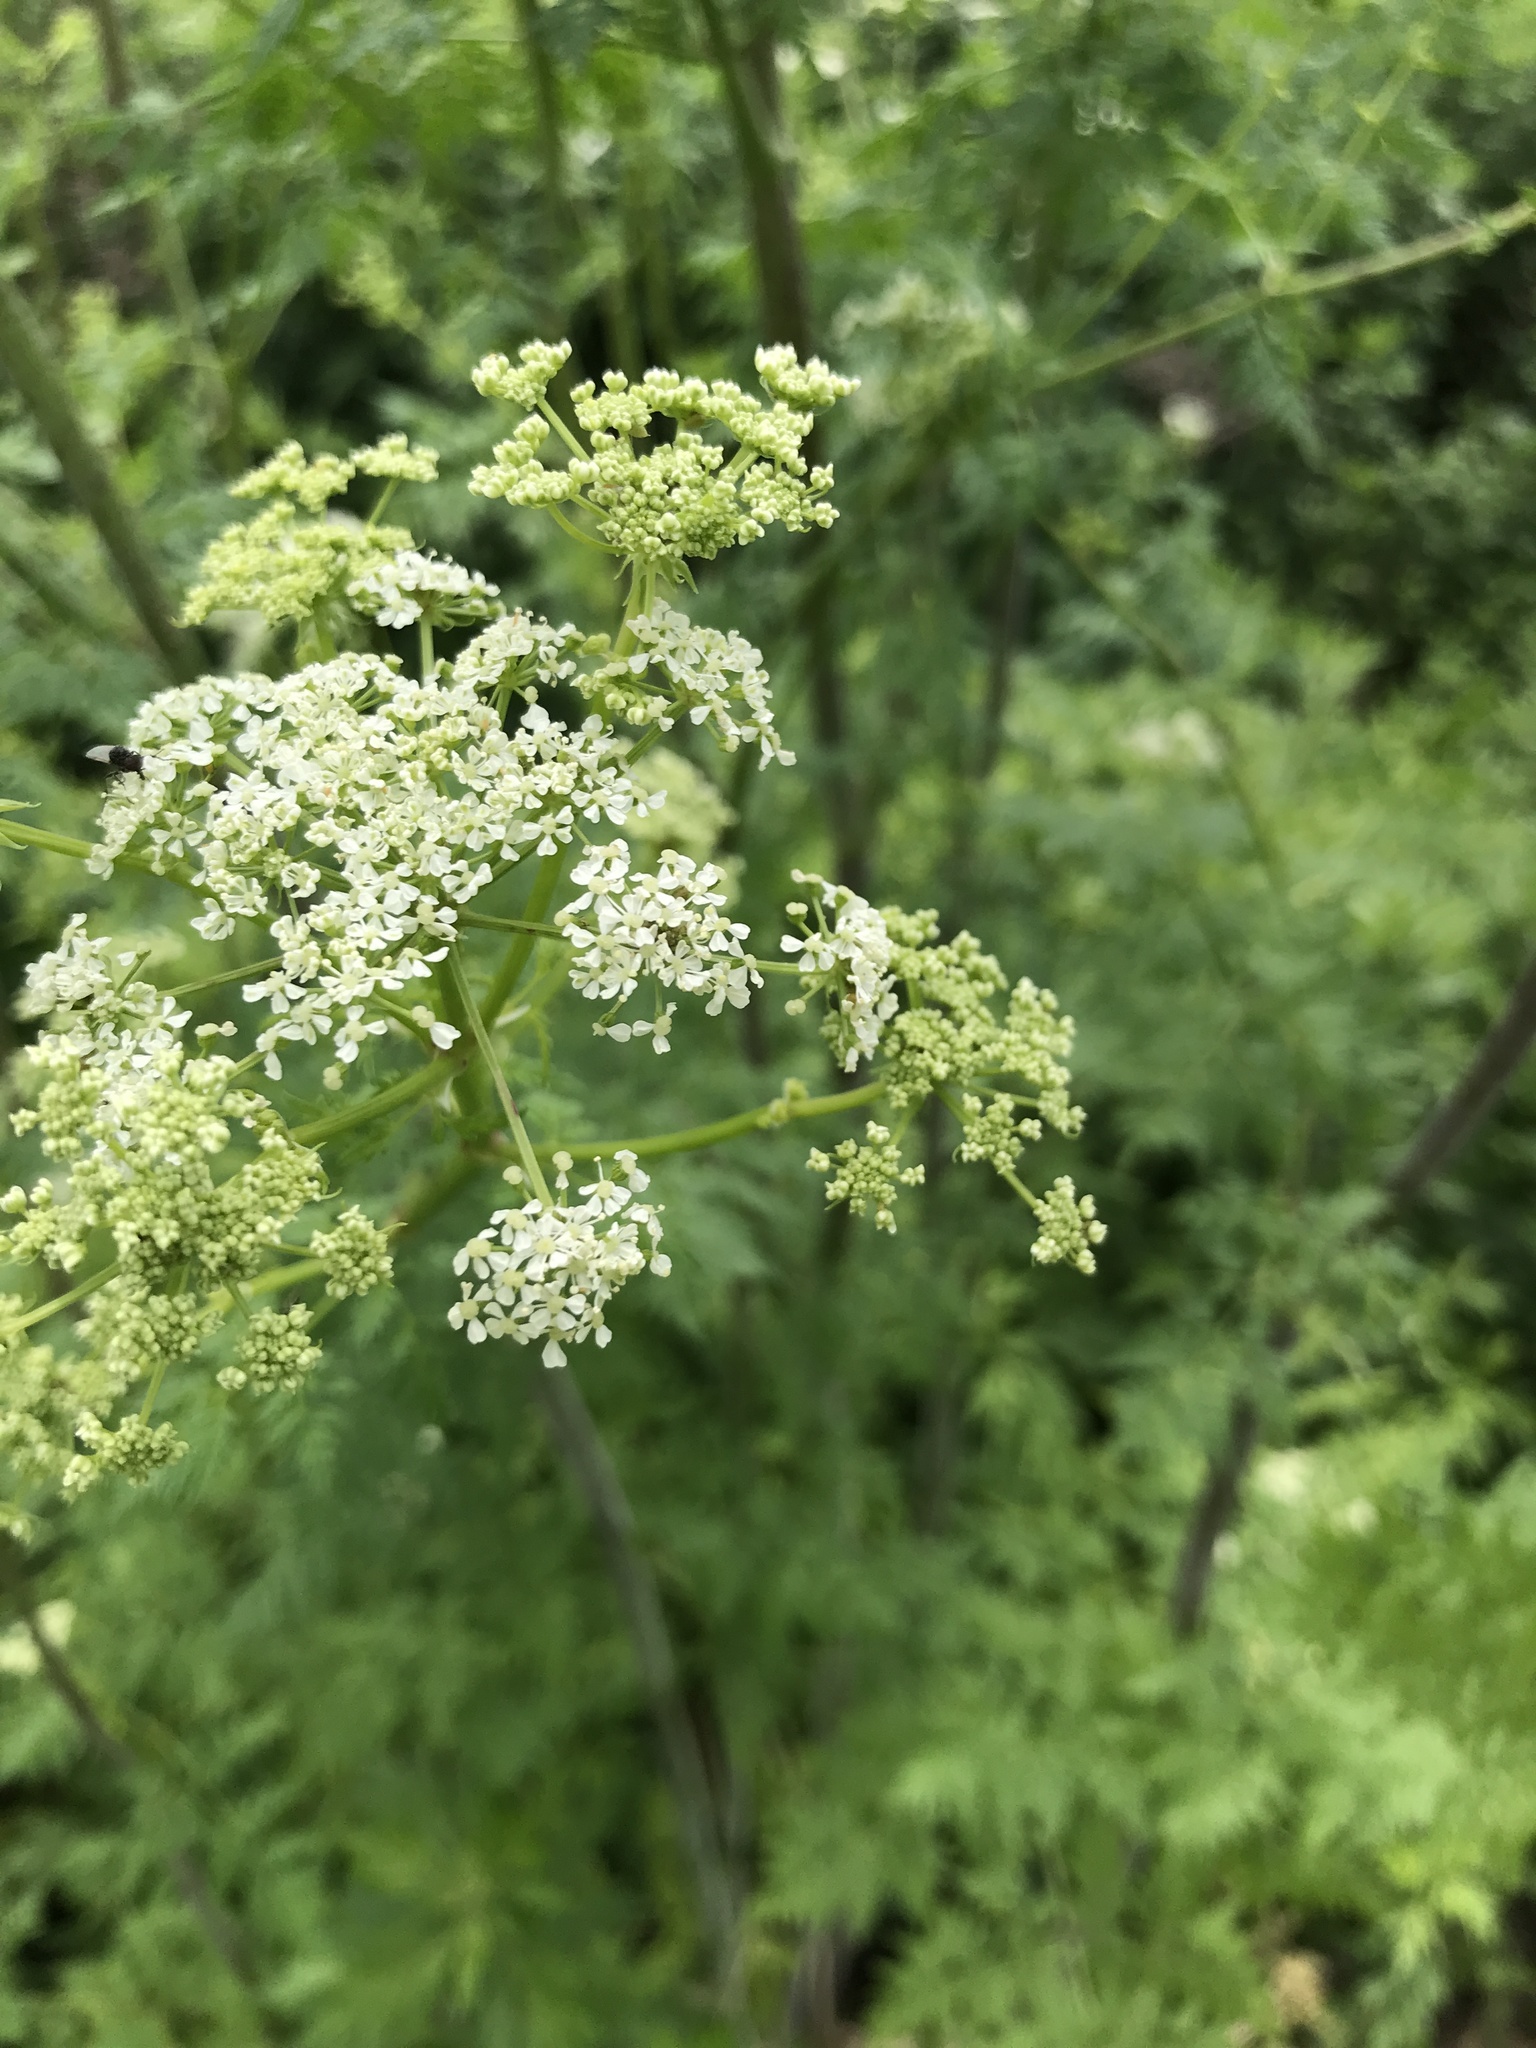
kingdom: Plantae
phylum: Tracheophyta
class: Magnoliopsida
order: Apiales
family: Apiaceae
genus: Conium
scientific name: Conium maculatum
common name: Hemlock
